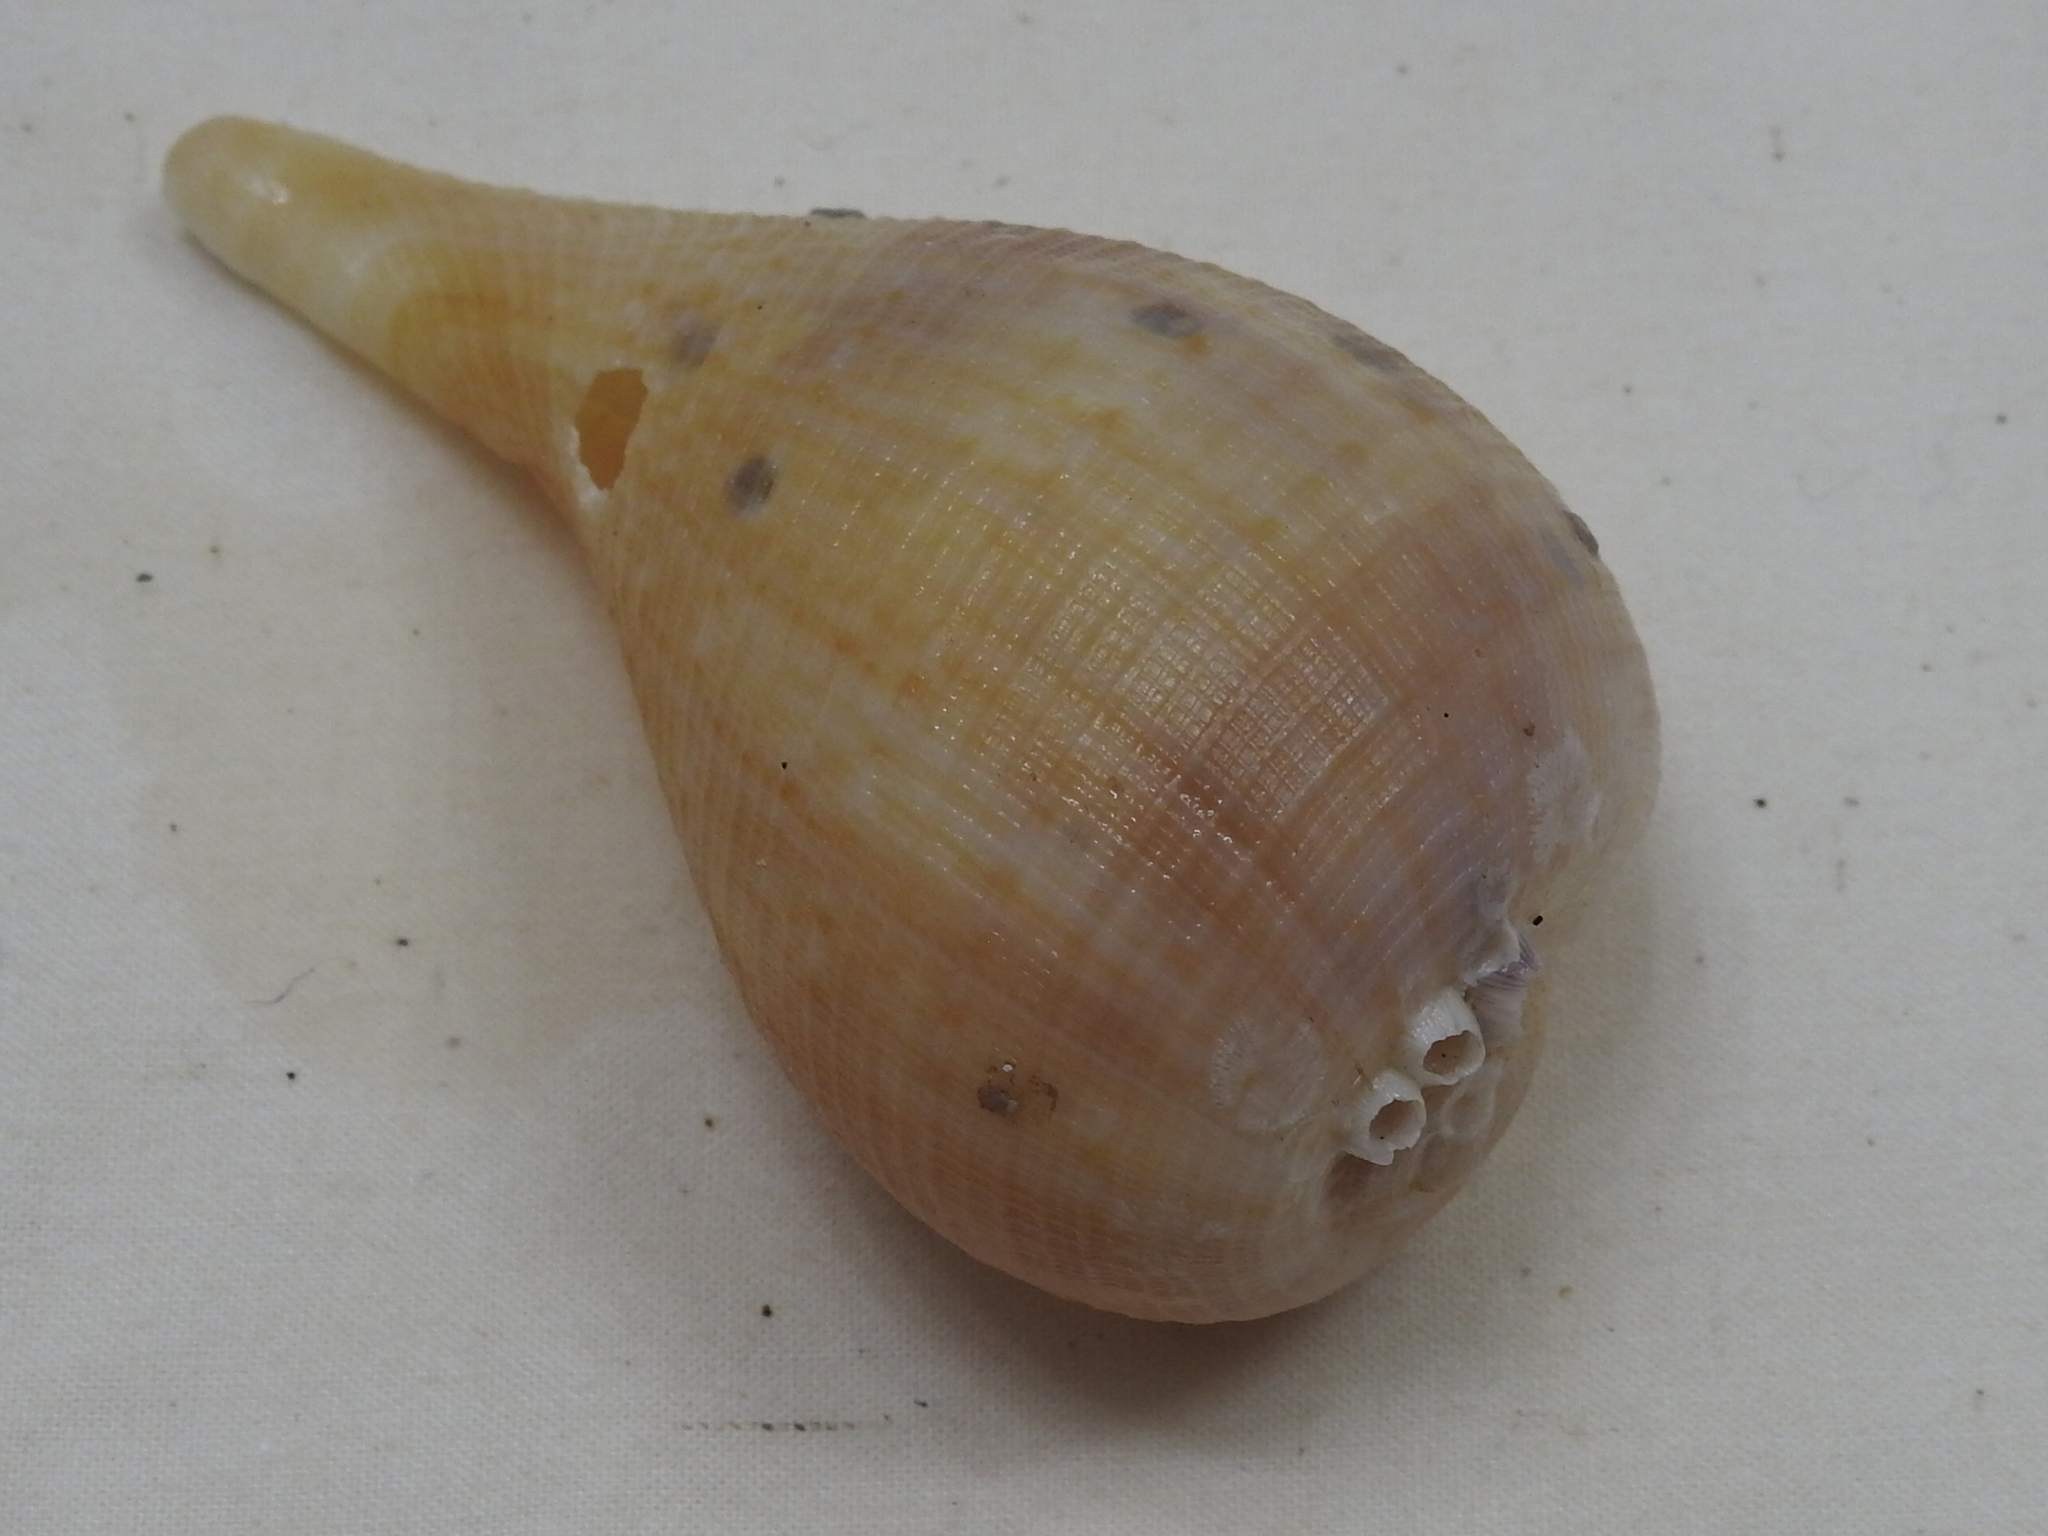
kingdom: Animalia
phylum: Mollusca
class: Gastropoda
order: Littorinimorpha
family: Ficidae
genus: Ficus
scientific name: Ficus papyratia
